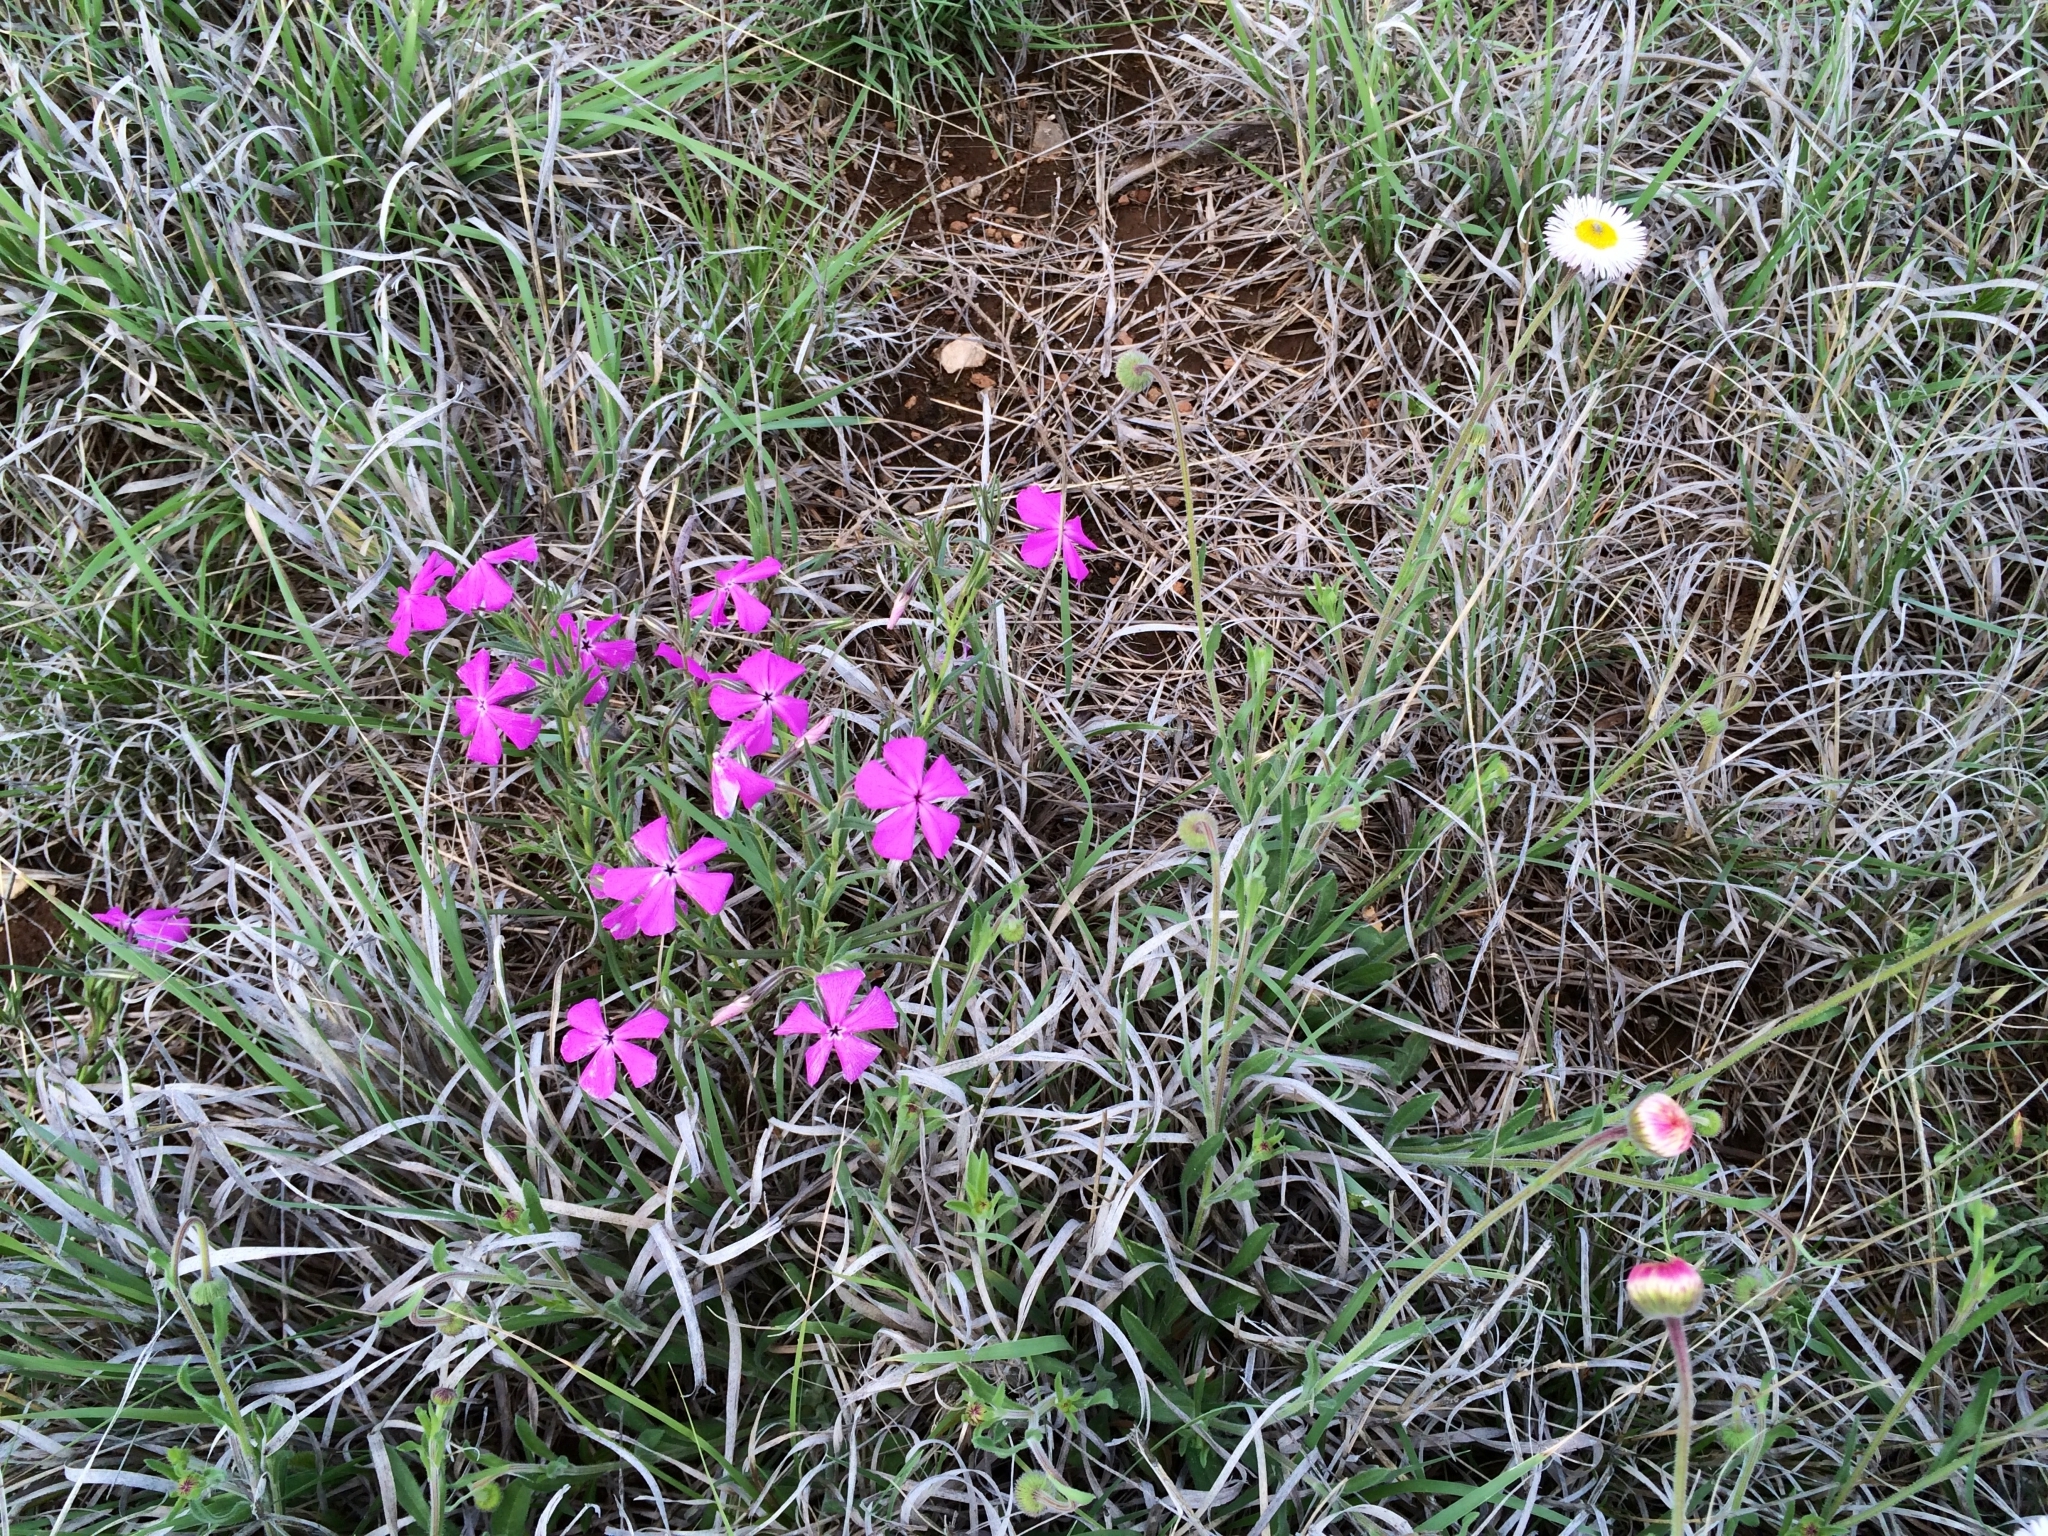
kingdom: Plantae
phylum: Tracheophyta
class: Magnoliopsida
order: Ericales
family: Polemoniaceae
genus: Phlox
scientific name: Phlox nana
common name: Santa fe phlox
